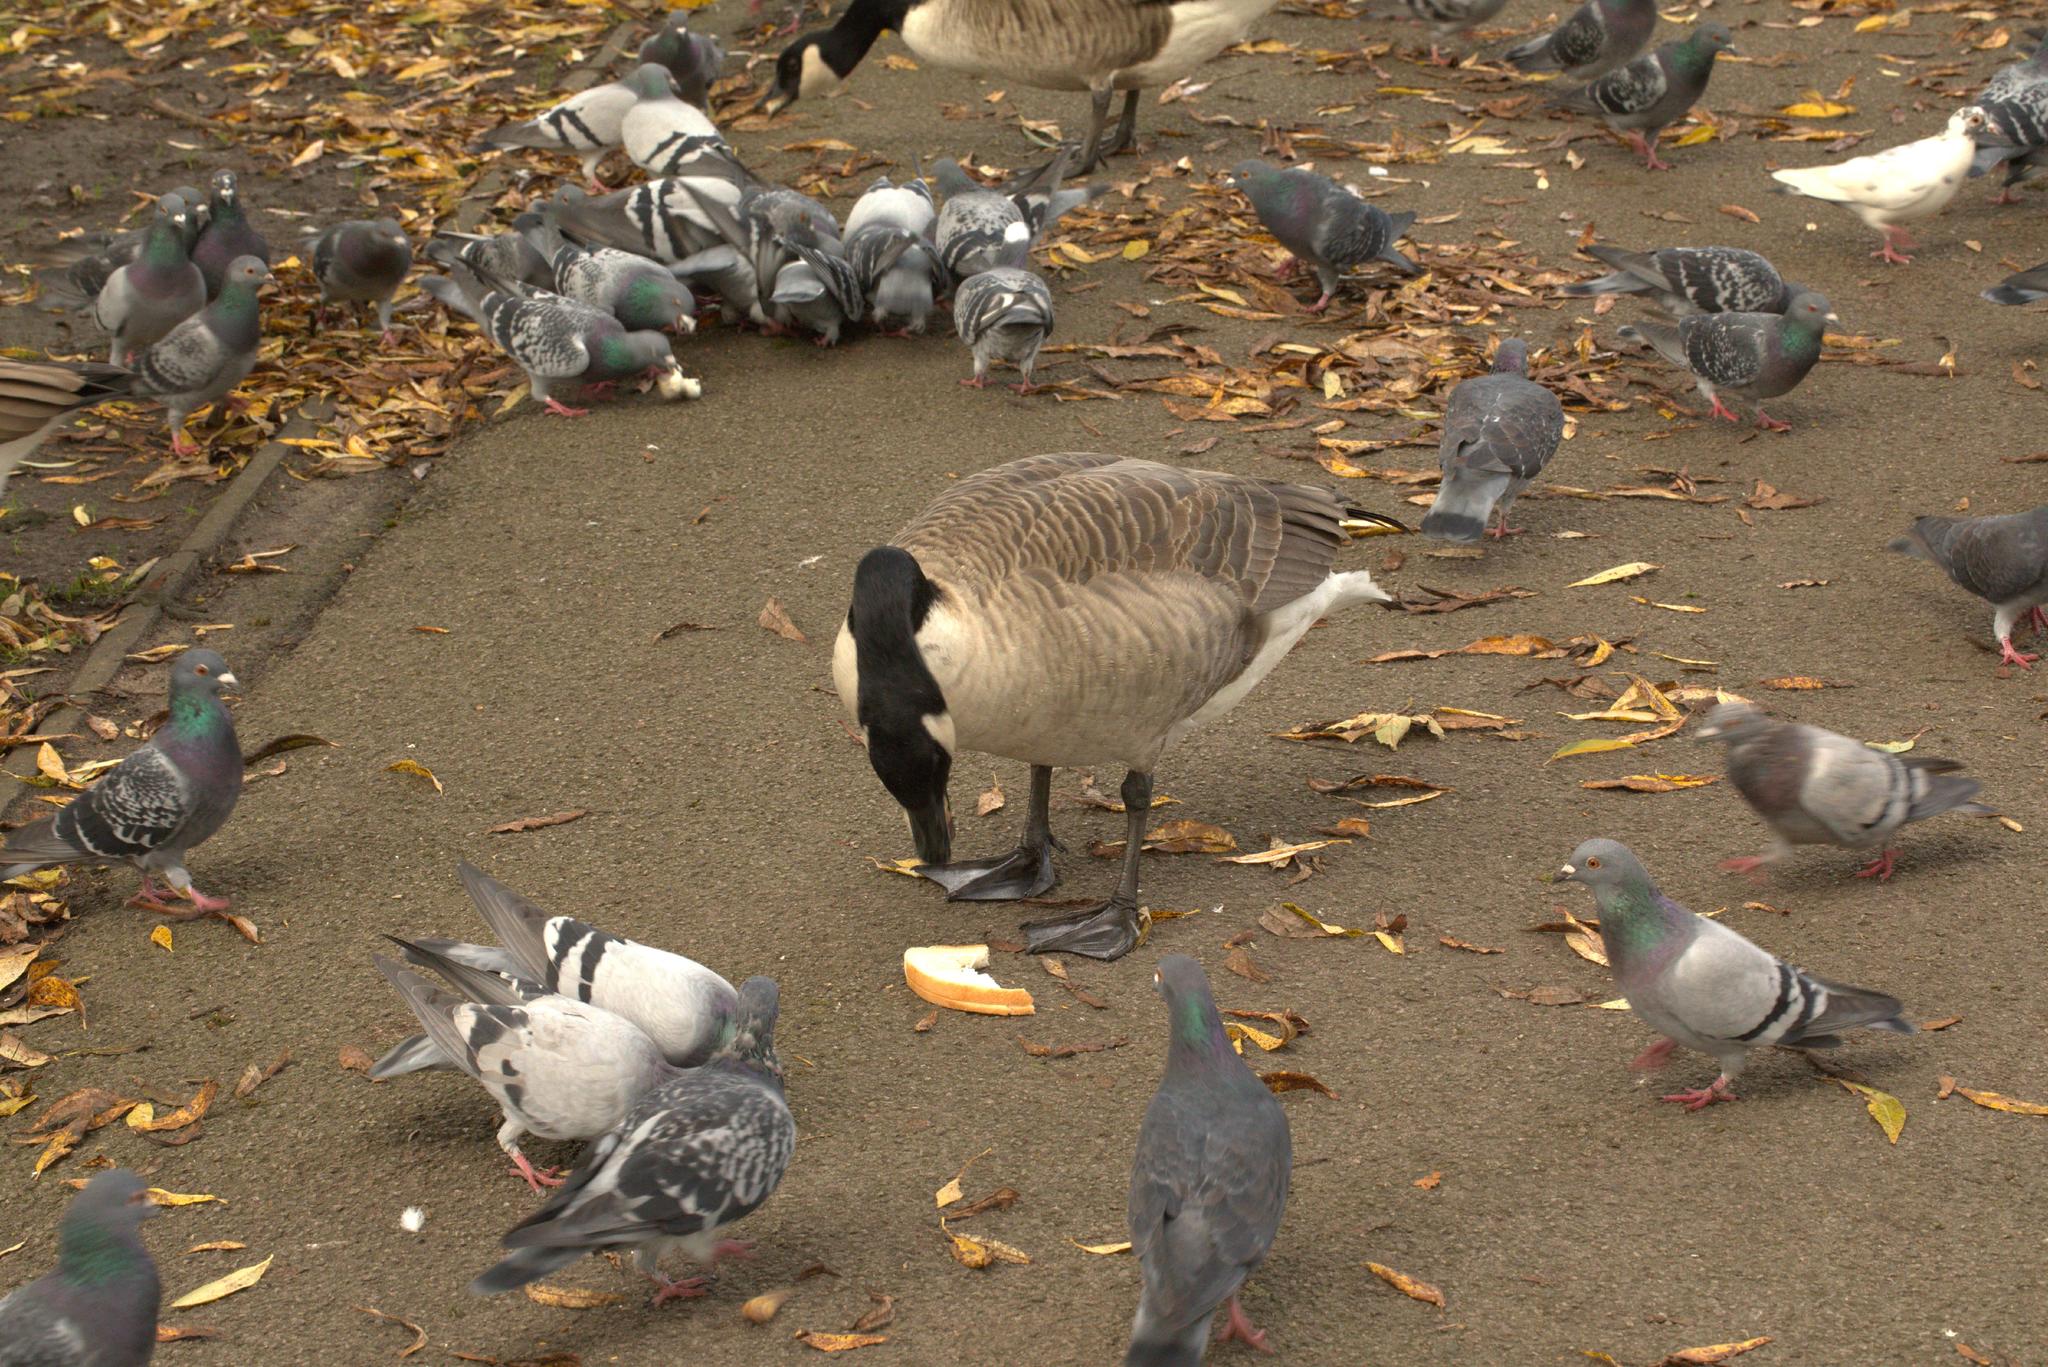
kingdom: Animalia
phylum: Chordata
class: Aves
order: Anseriformes
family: Anatidae
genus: Branta
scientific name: Branta canadensis
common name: Canada goose
